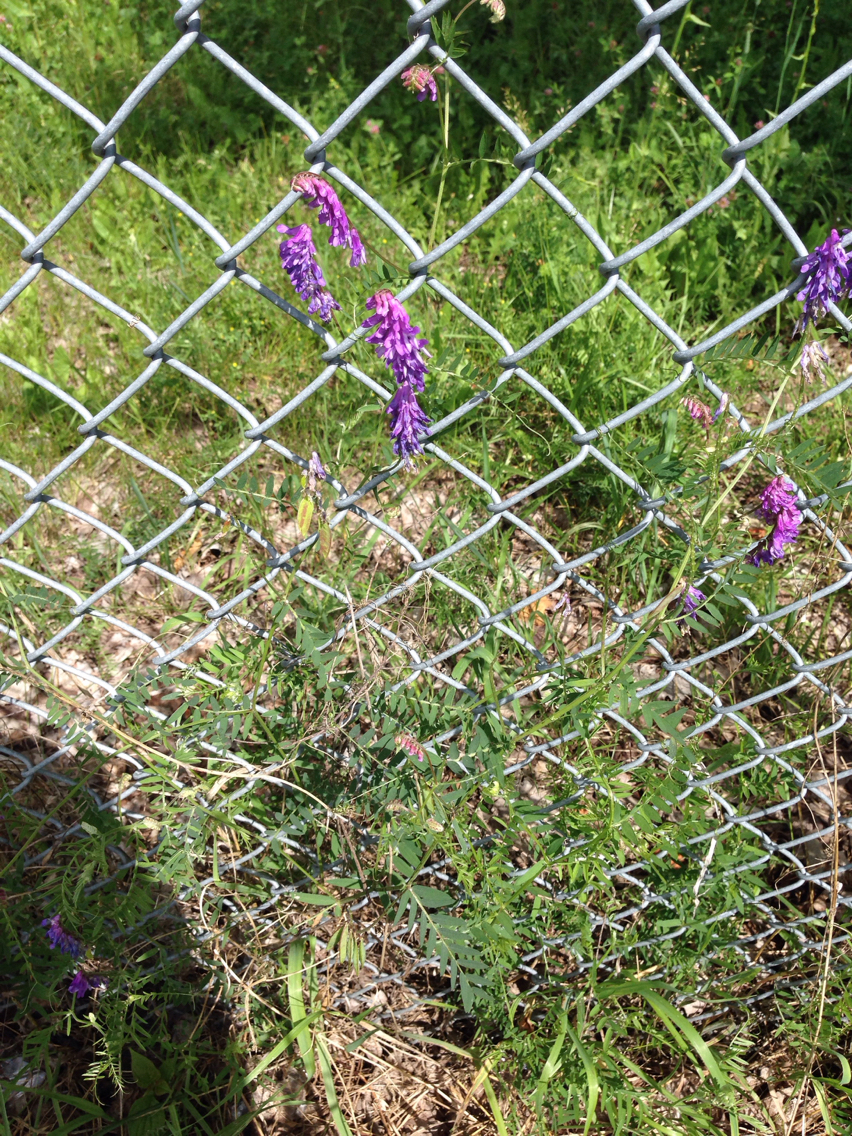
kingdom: Plantae
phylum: Tracheophyta
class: Magnoliopsida
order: Fabales
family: Fabaceae
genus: Vicia
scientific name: Vicia cracca
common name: Bird vetch
